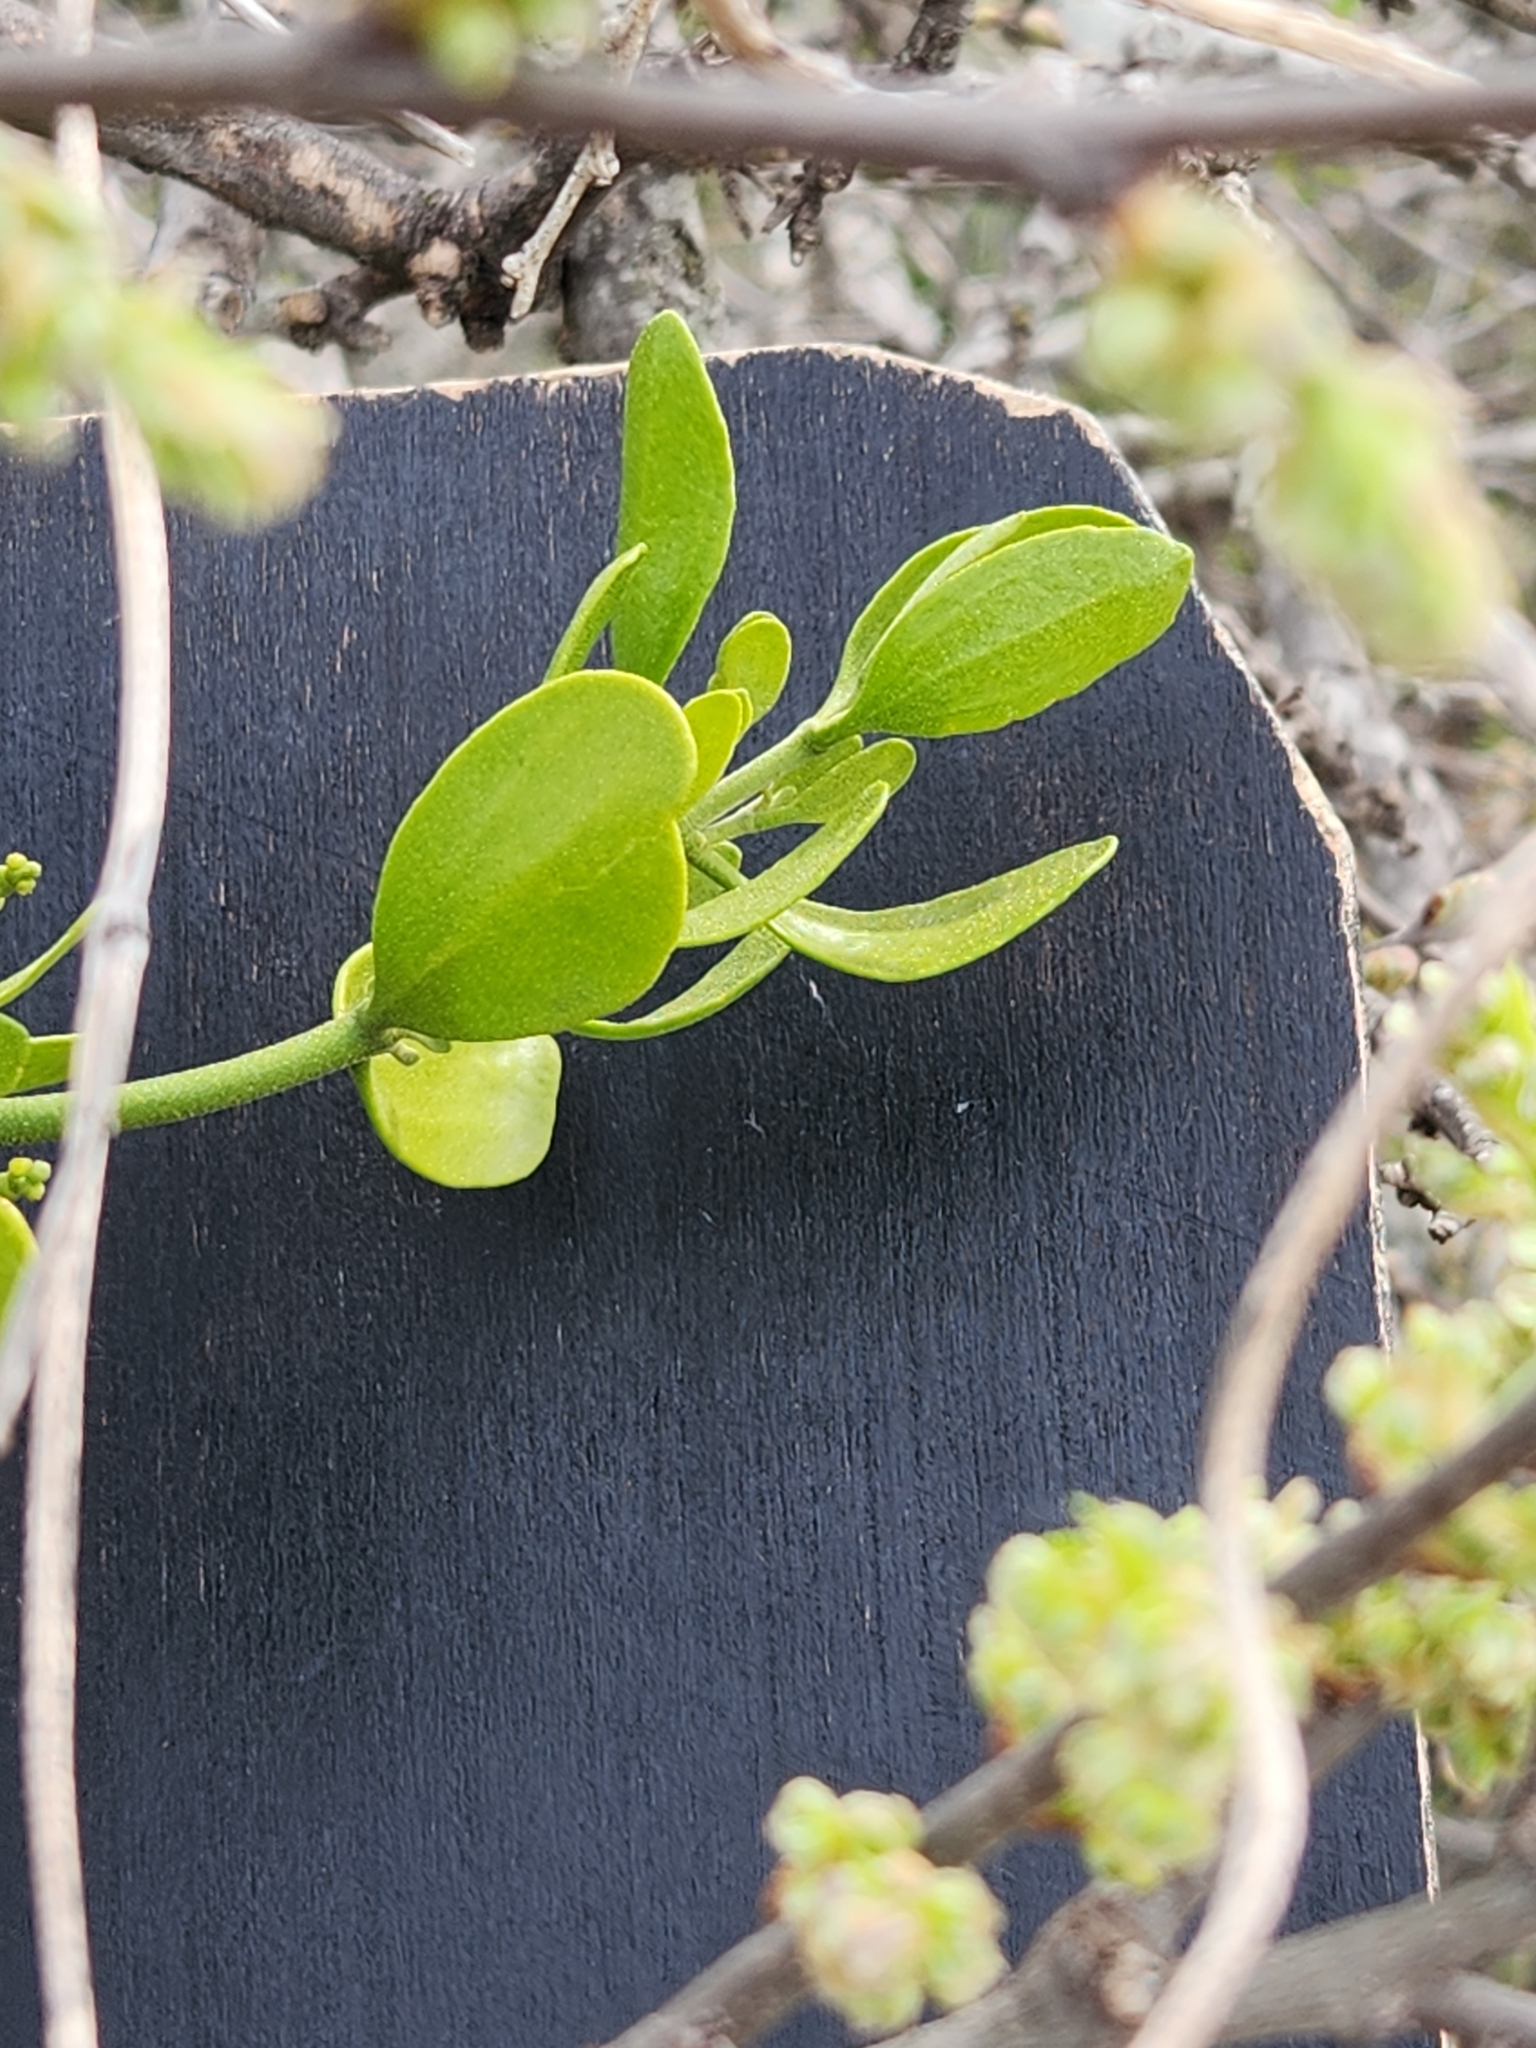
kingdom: Plantae
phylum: Tracheophyta
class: Magnoliopsida
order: Santalales
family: Viscaceae
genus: Phoradendron
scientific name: Phoradendron leucarpum
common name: Pacific mistletoe
